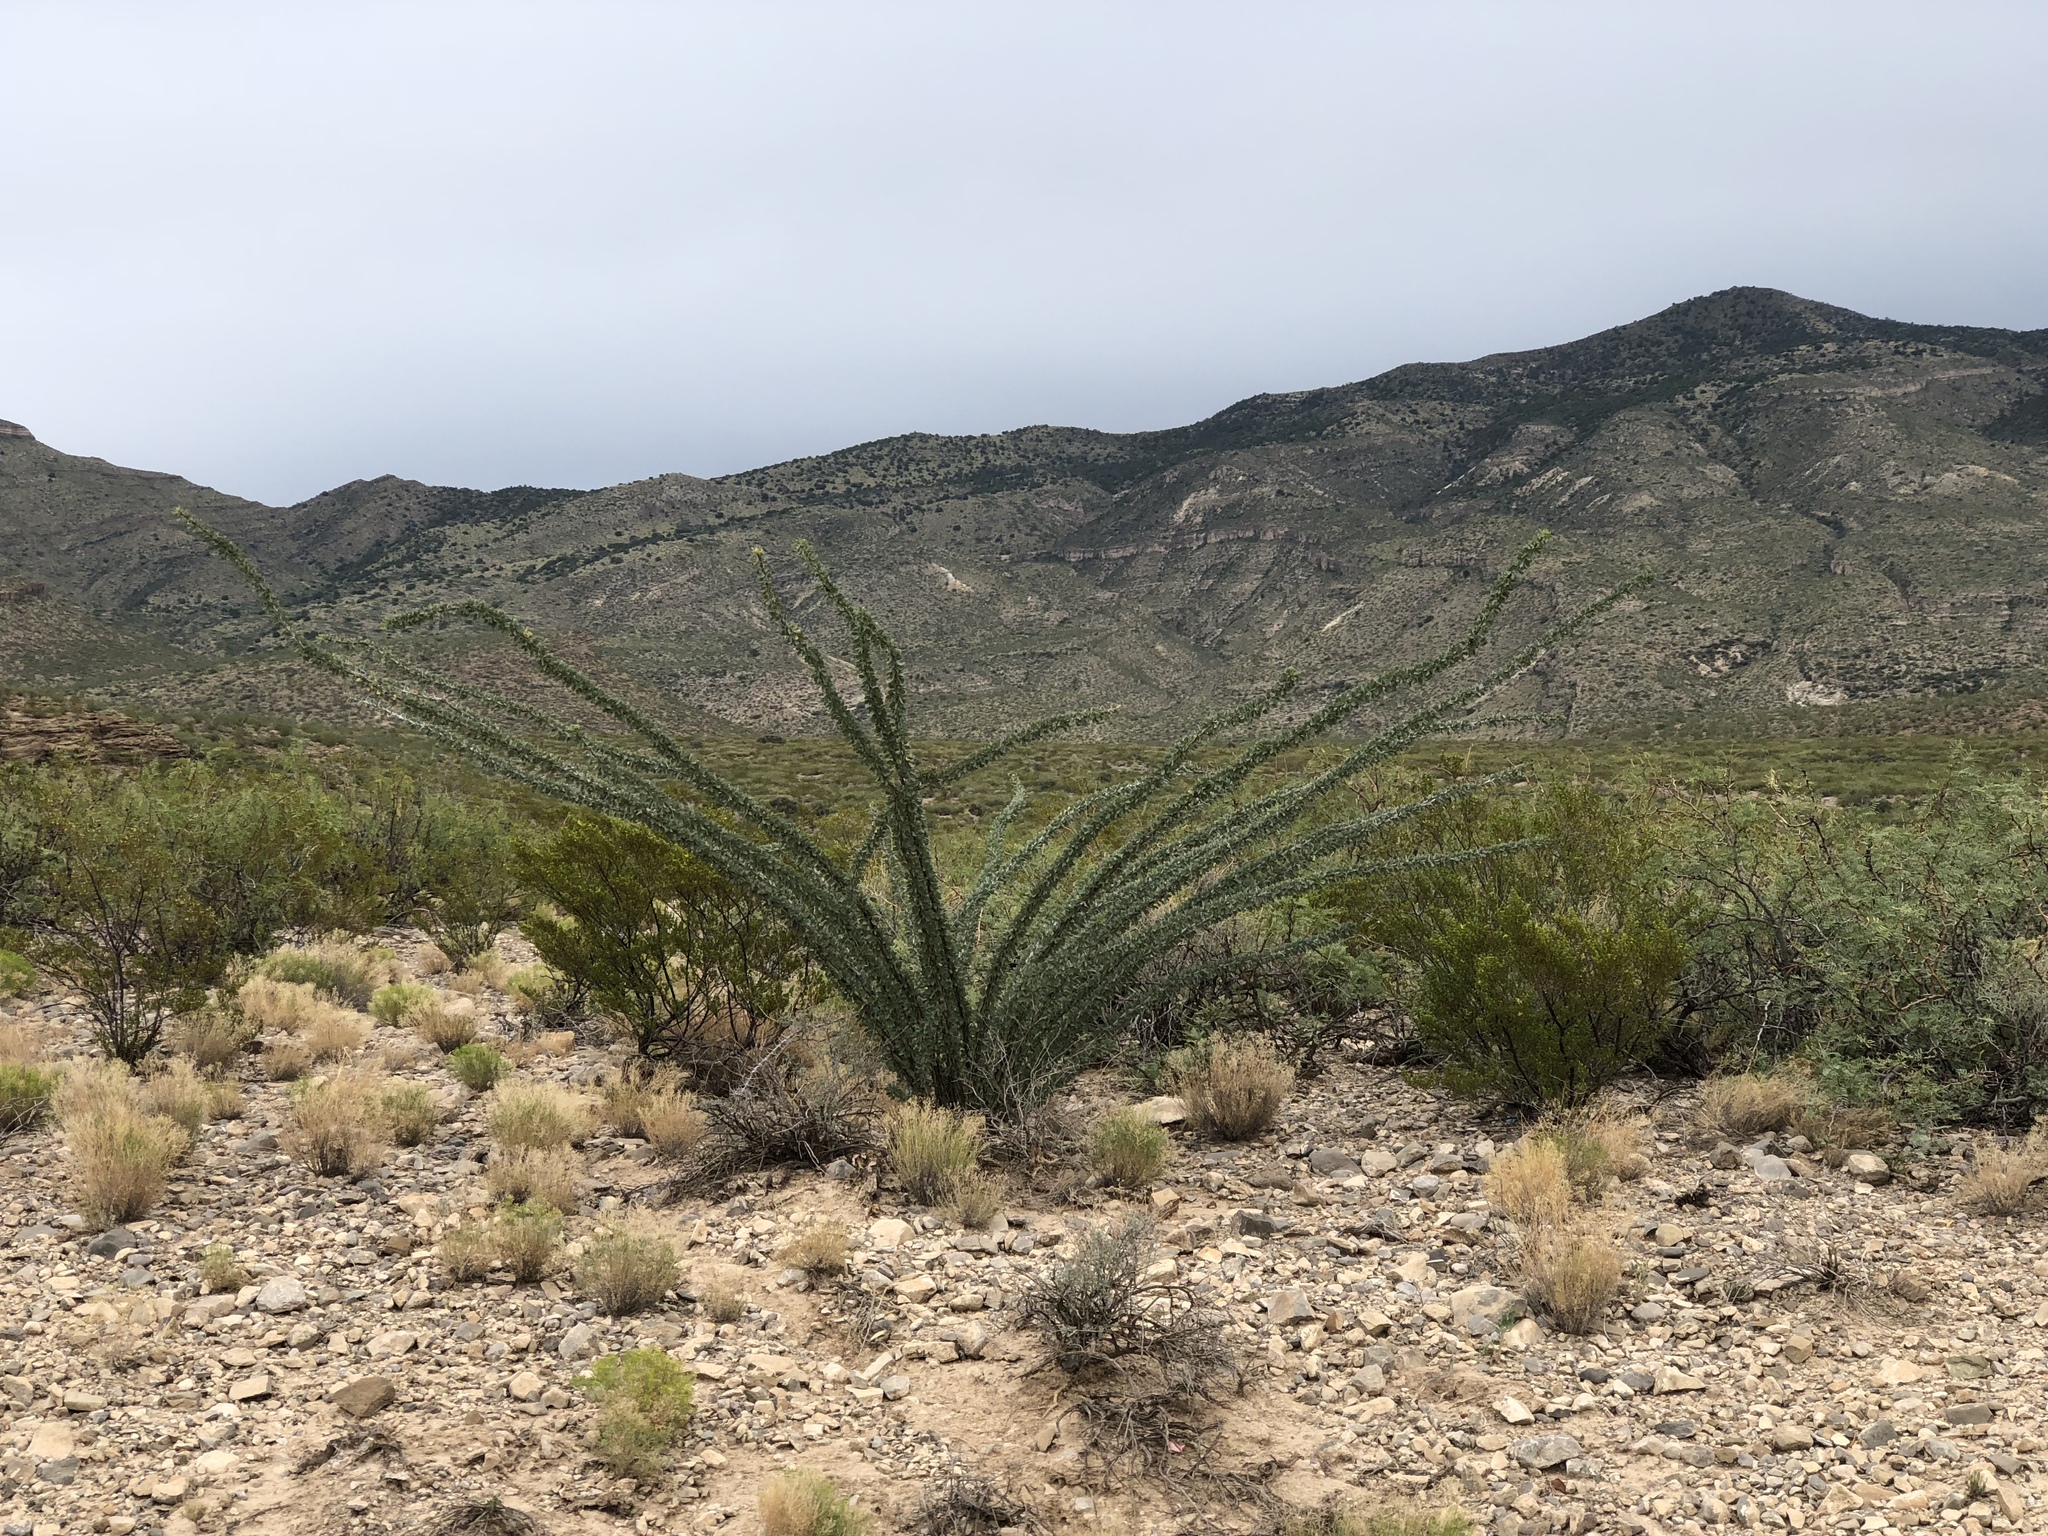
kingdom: Plantae
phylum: Tracheophyta
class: Magnoliopsida
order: Ericales
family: Fouquieriaceae
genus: Fouquieria
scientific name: Fouquieria splendens
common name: Vine-cactus
